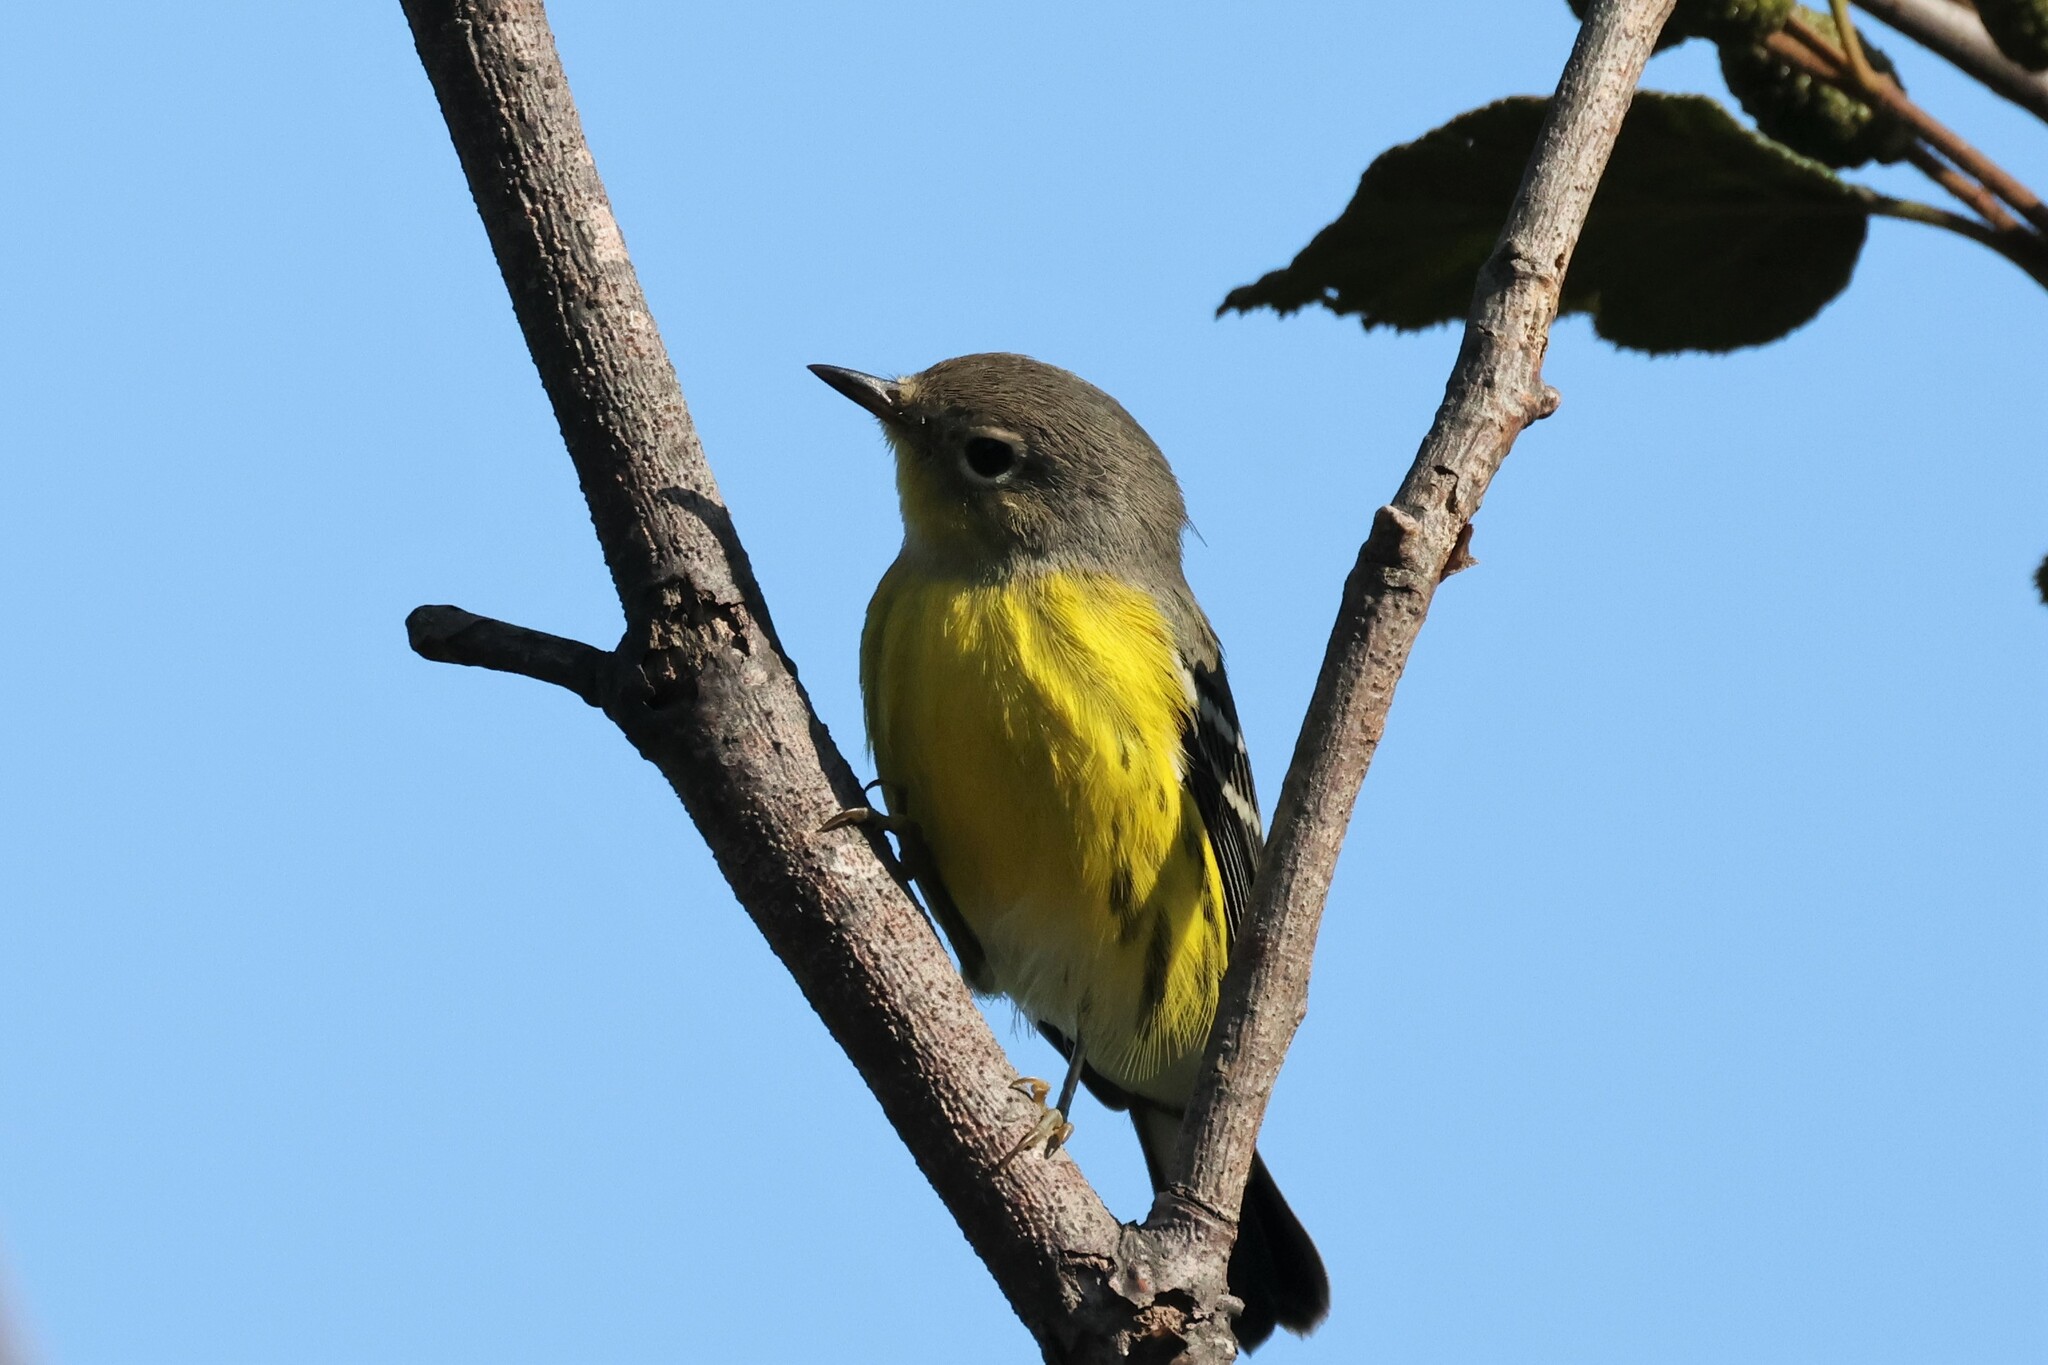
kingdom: Animalia
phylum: Chordata
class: Aves
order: Passeriformes
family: Parulidae
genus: Setophaga
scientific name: Setophaga magnolia
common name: Magnolia warbler
